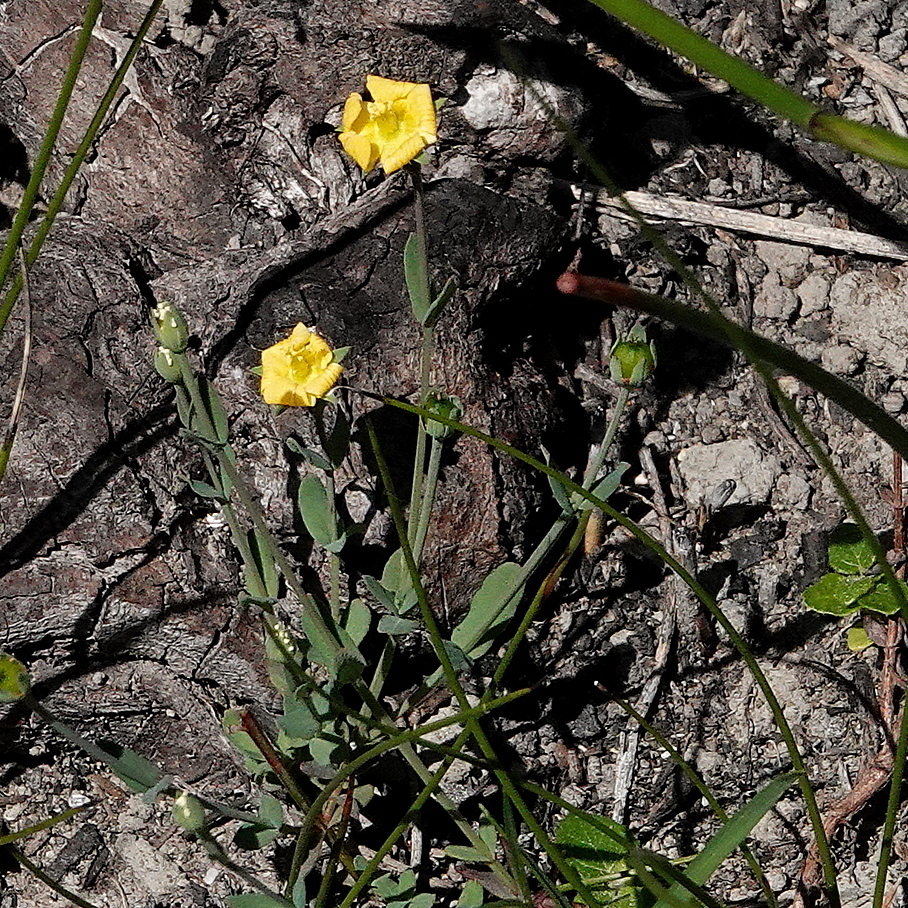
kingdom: Plantae
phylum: Tracheophyta
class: Magnoliopsida
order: Malpighiales
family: Hypericaceae
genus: Hypericum
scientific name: Hypericum gramineum
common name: Grassy st. johnswort
